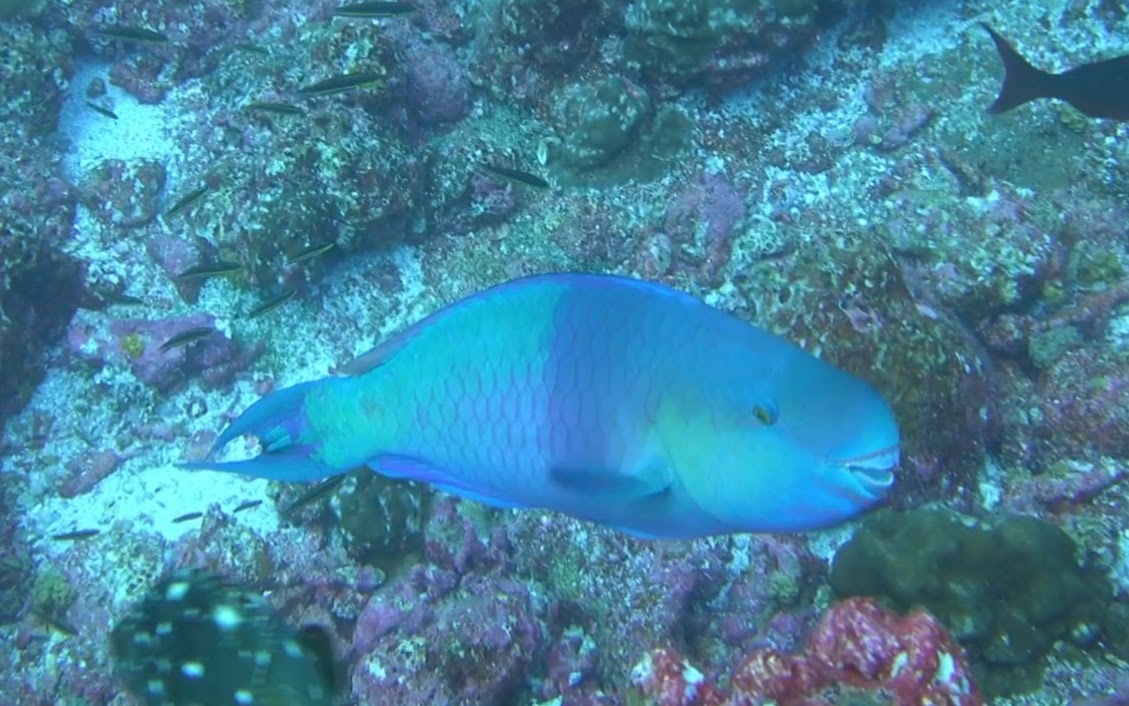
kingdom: Animalia
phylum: Chordata
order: Perciformes
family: Scaridae
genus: Scarus
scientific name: Scarus rubroviolaceus
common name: Ember parrotfish
